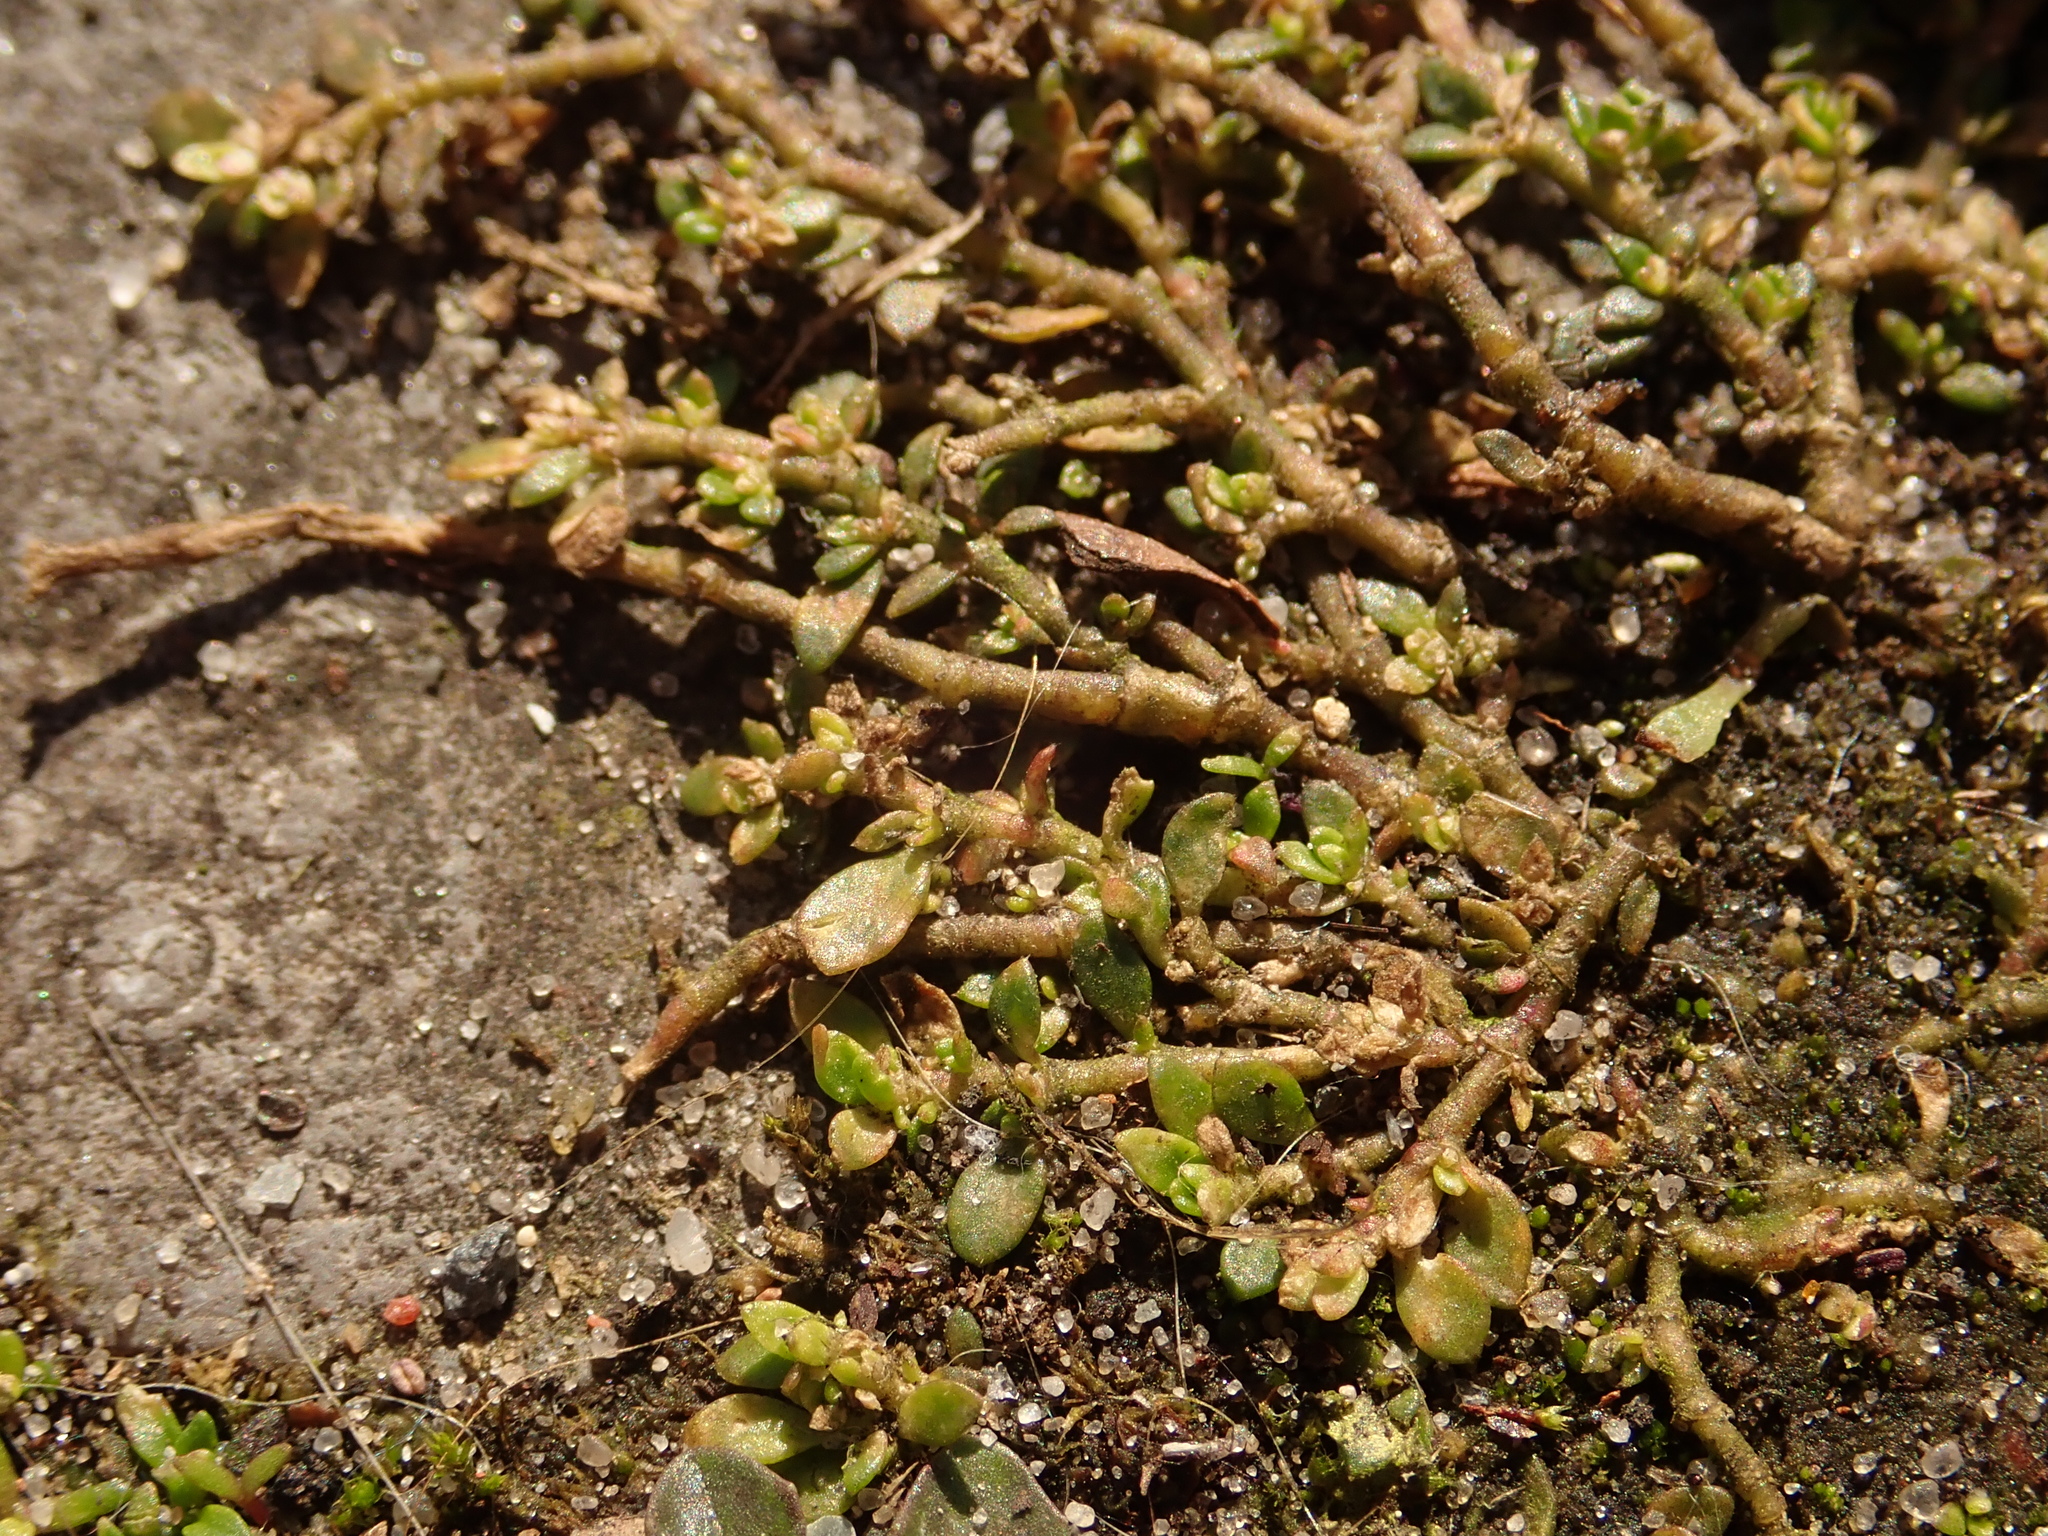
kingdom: Plantae
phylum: Tracheophyta
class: Magnoliopsida
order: Caryophyllales
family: Caryophyllaceae
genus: Herniaria
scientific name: Herniaria glabra
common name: Smooth rupturewort
